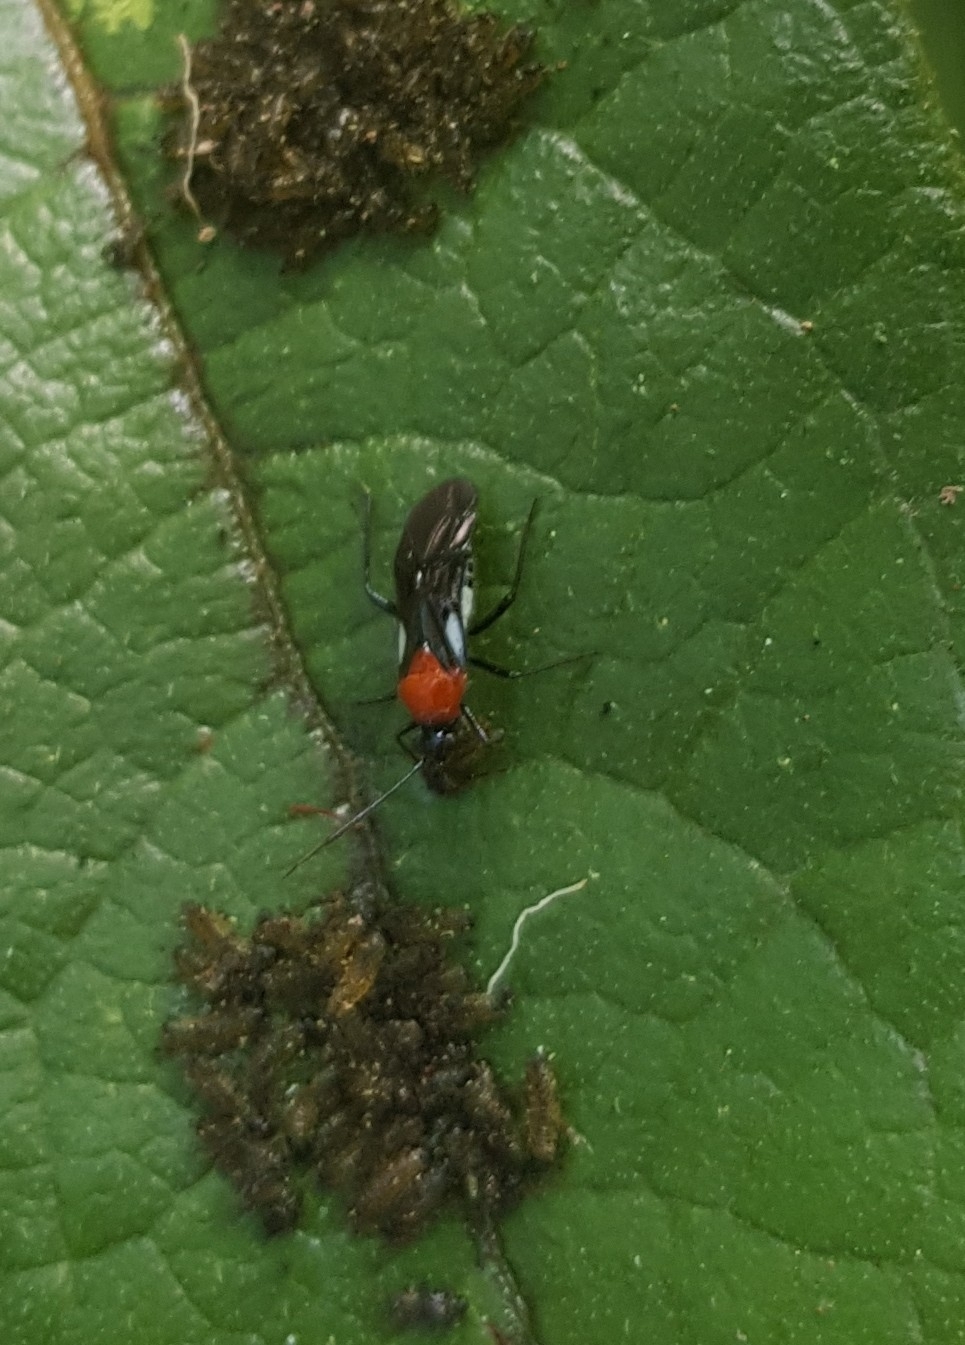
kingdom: Animalia
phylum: Arthropoda
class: Insecta
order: Hemiptera
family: Miridae
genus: Trilaccus
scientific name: Trilaccus
